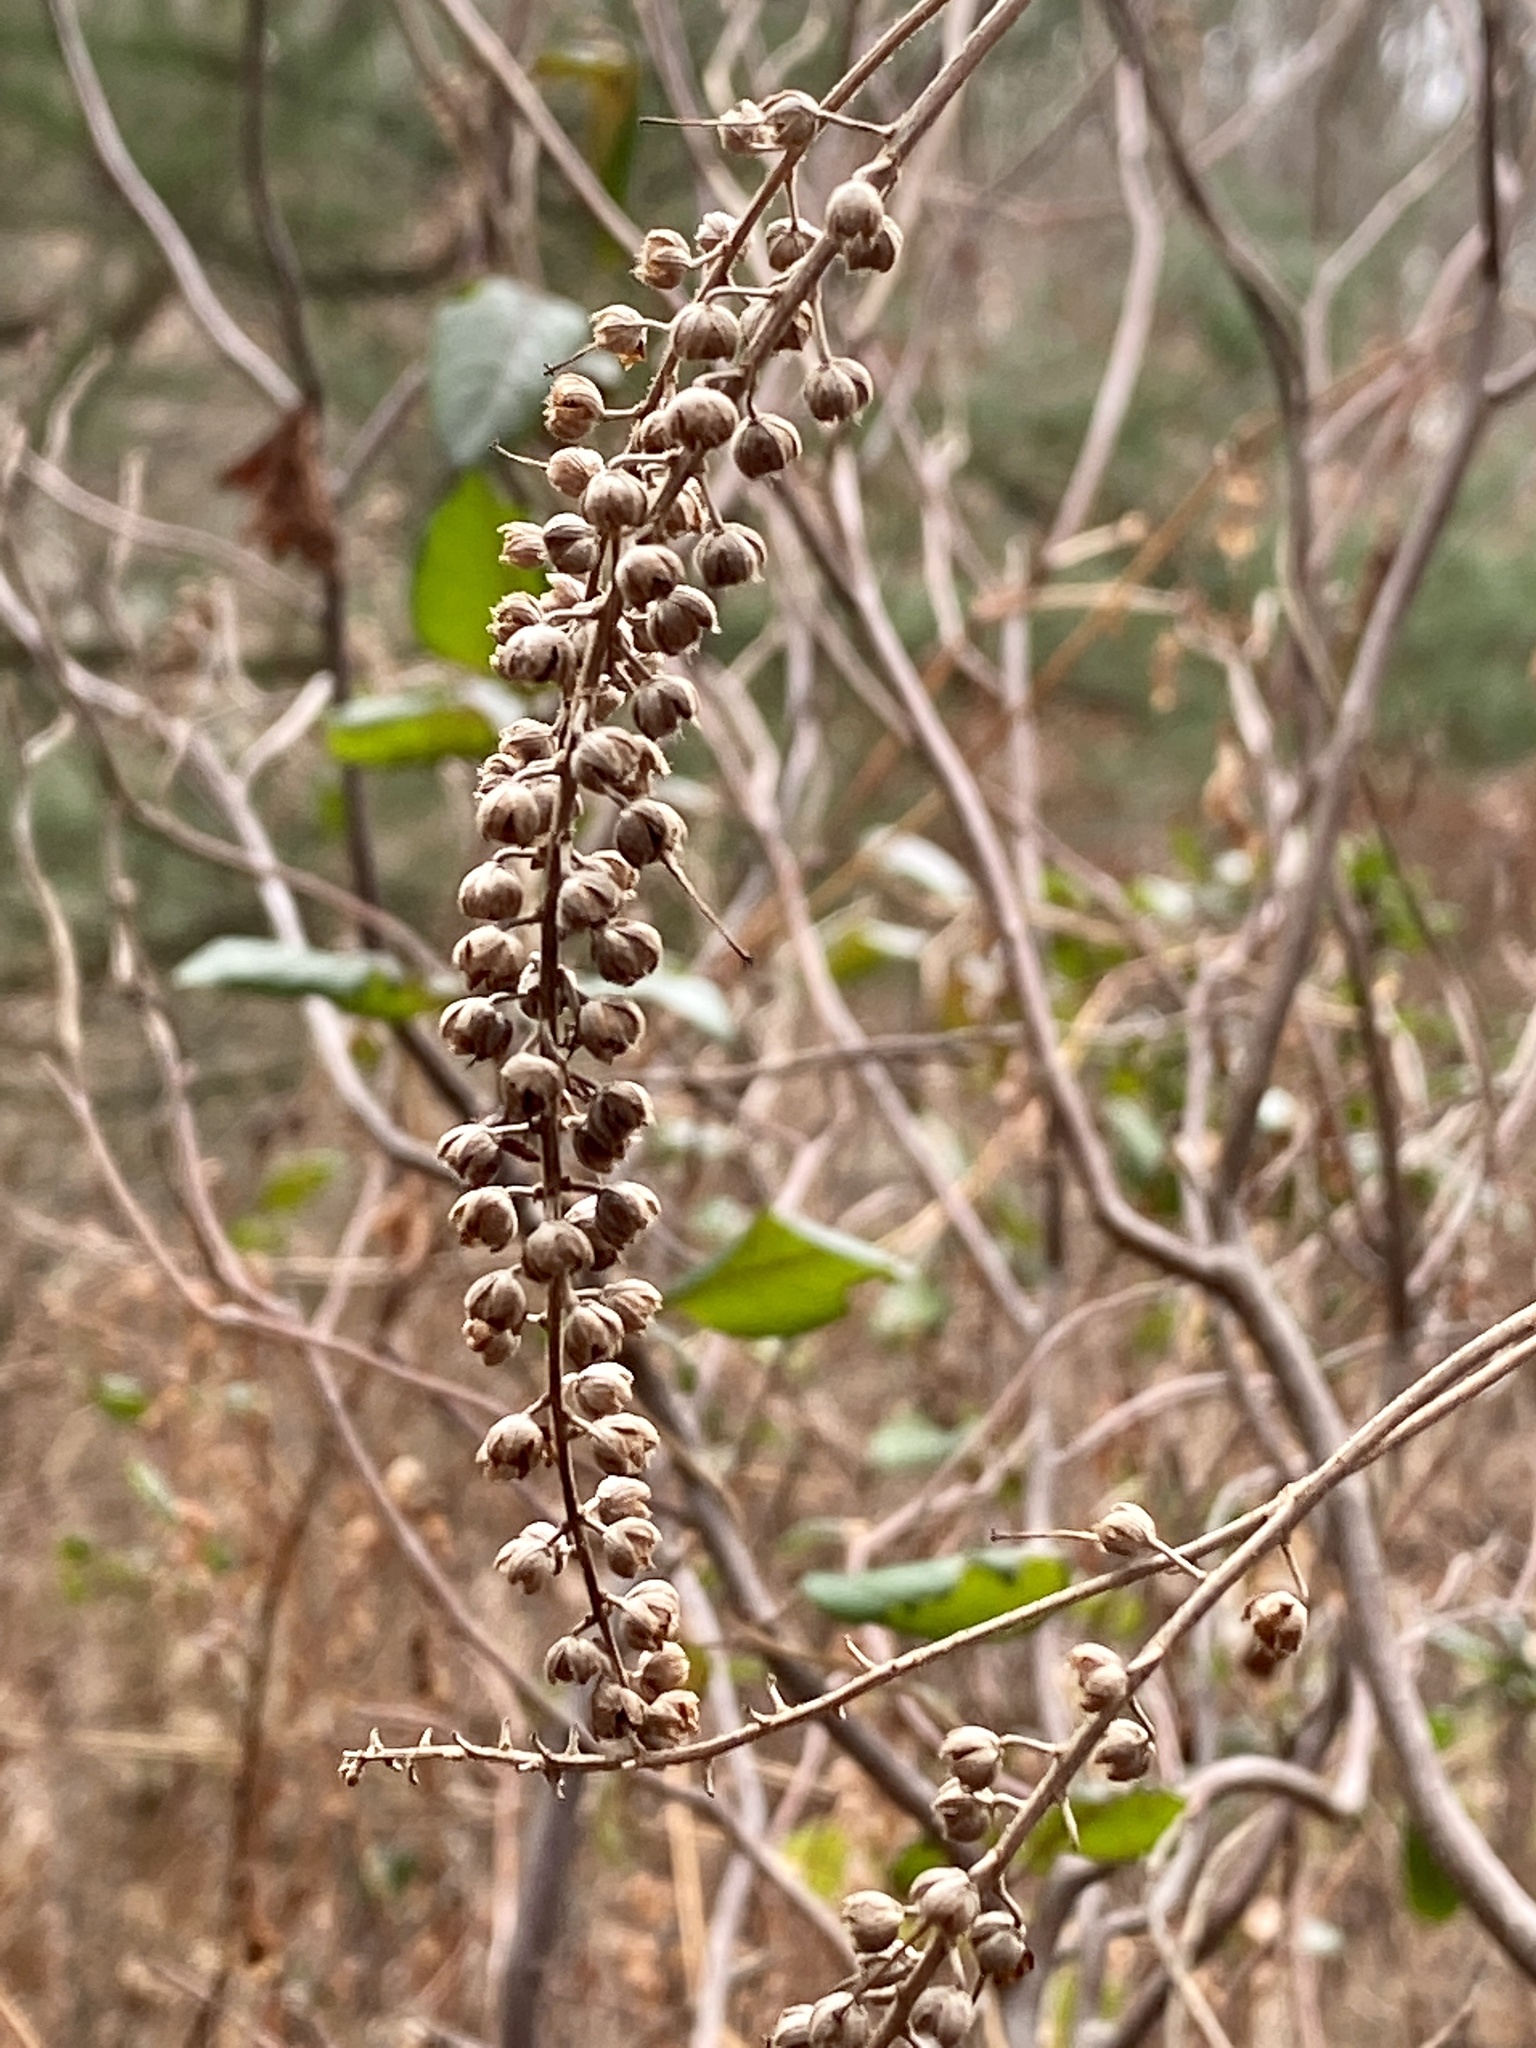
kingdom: Plantae
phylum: Tracheophyta
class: Magnoliopsida
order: Ericales
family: Clethraceae
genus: Clethra
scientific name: Clethra alnifolia
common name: Sweet pepperbush
